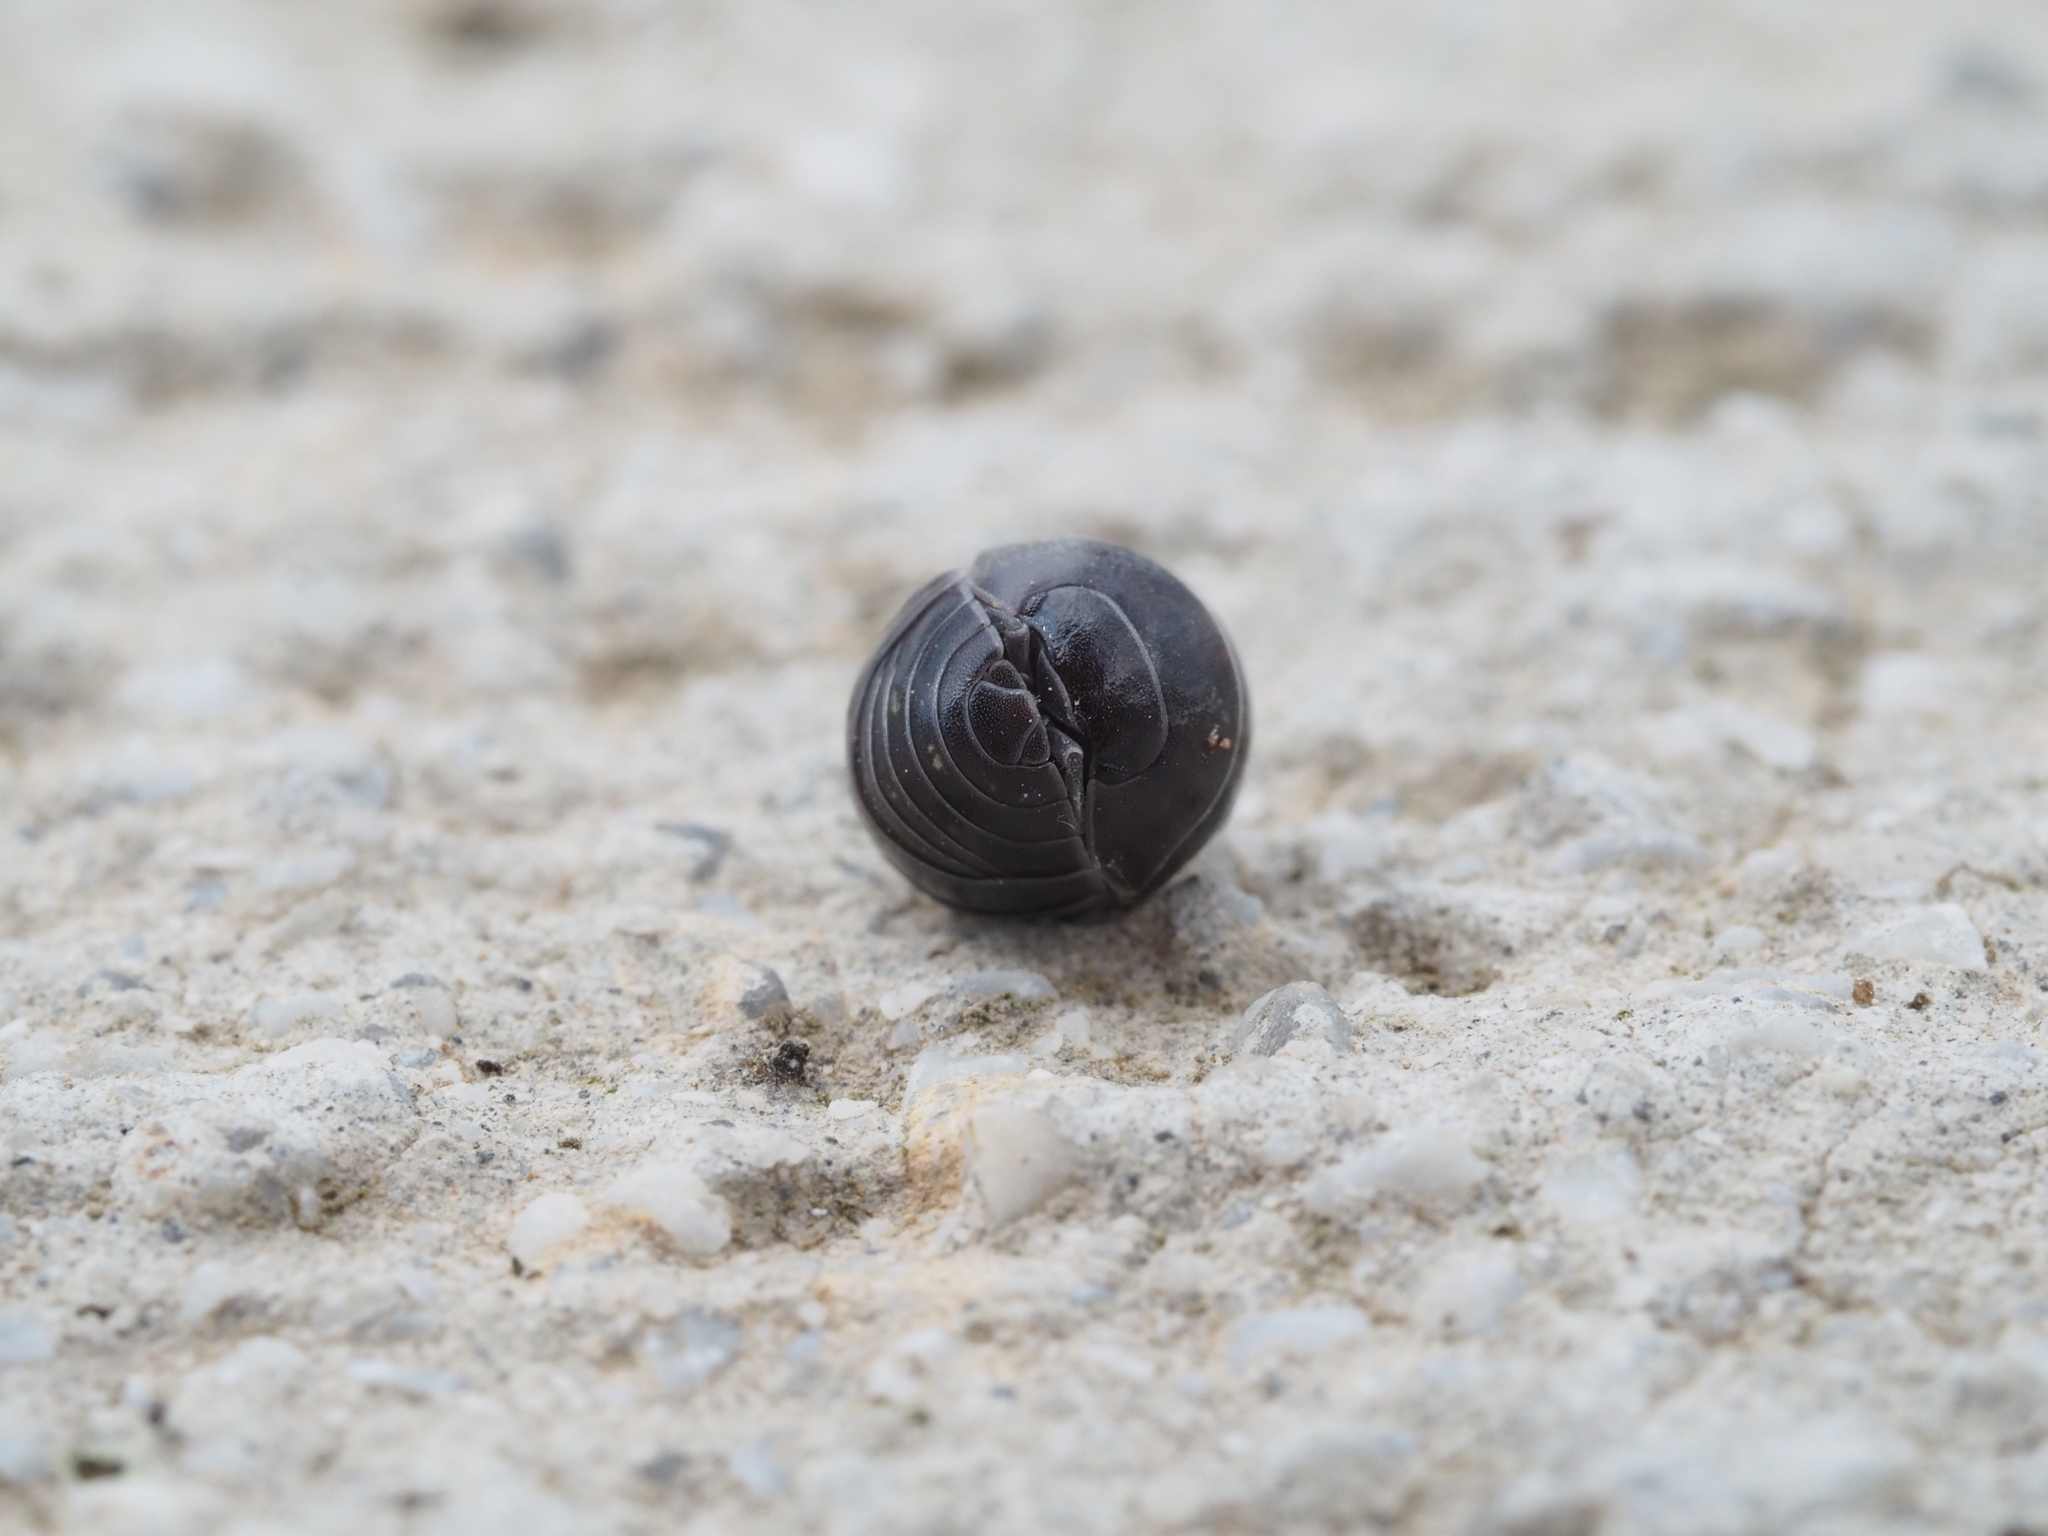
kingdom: Animalia
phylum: Arthropoda
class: Malacostraca
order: Isopoda
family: Armadillidiidae
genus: Armadillidium
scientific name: Armadillidium vulgare
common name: Common pill woodlouse
